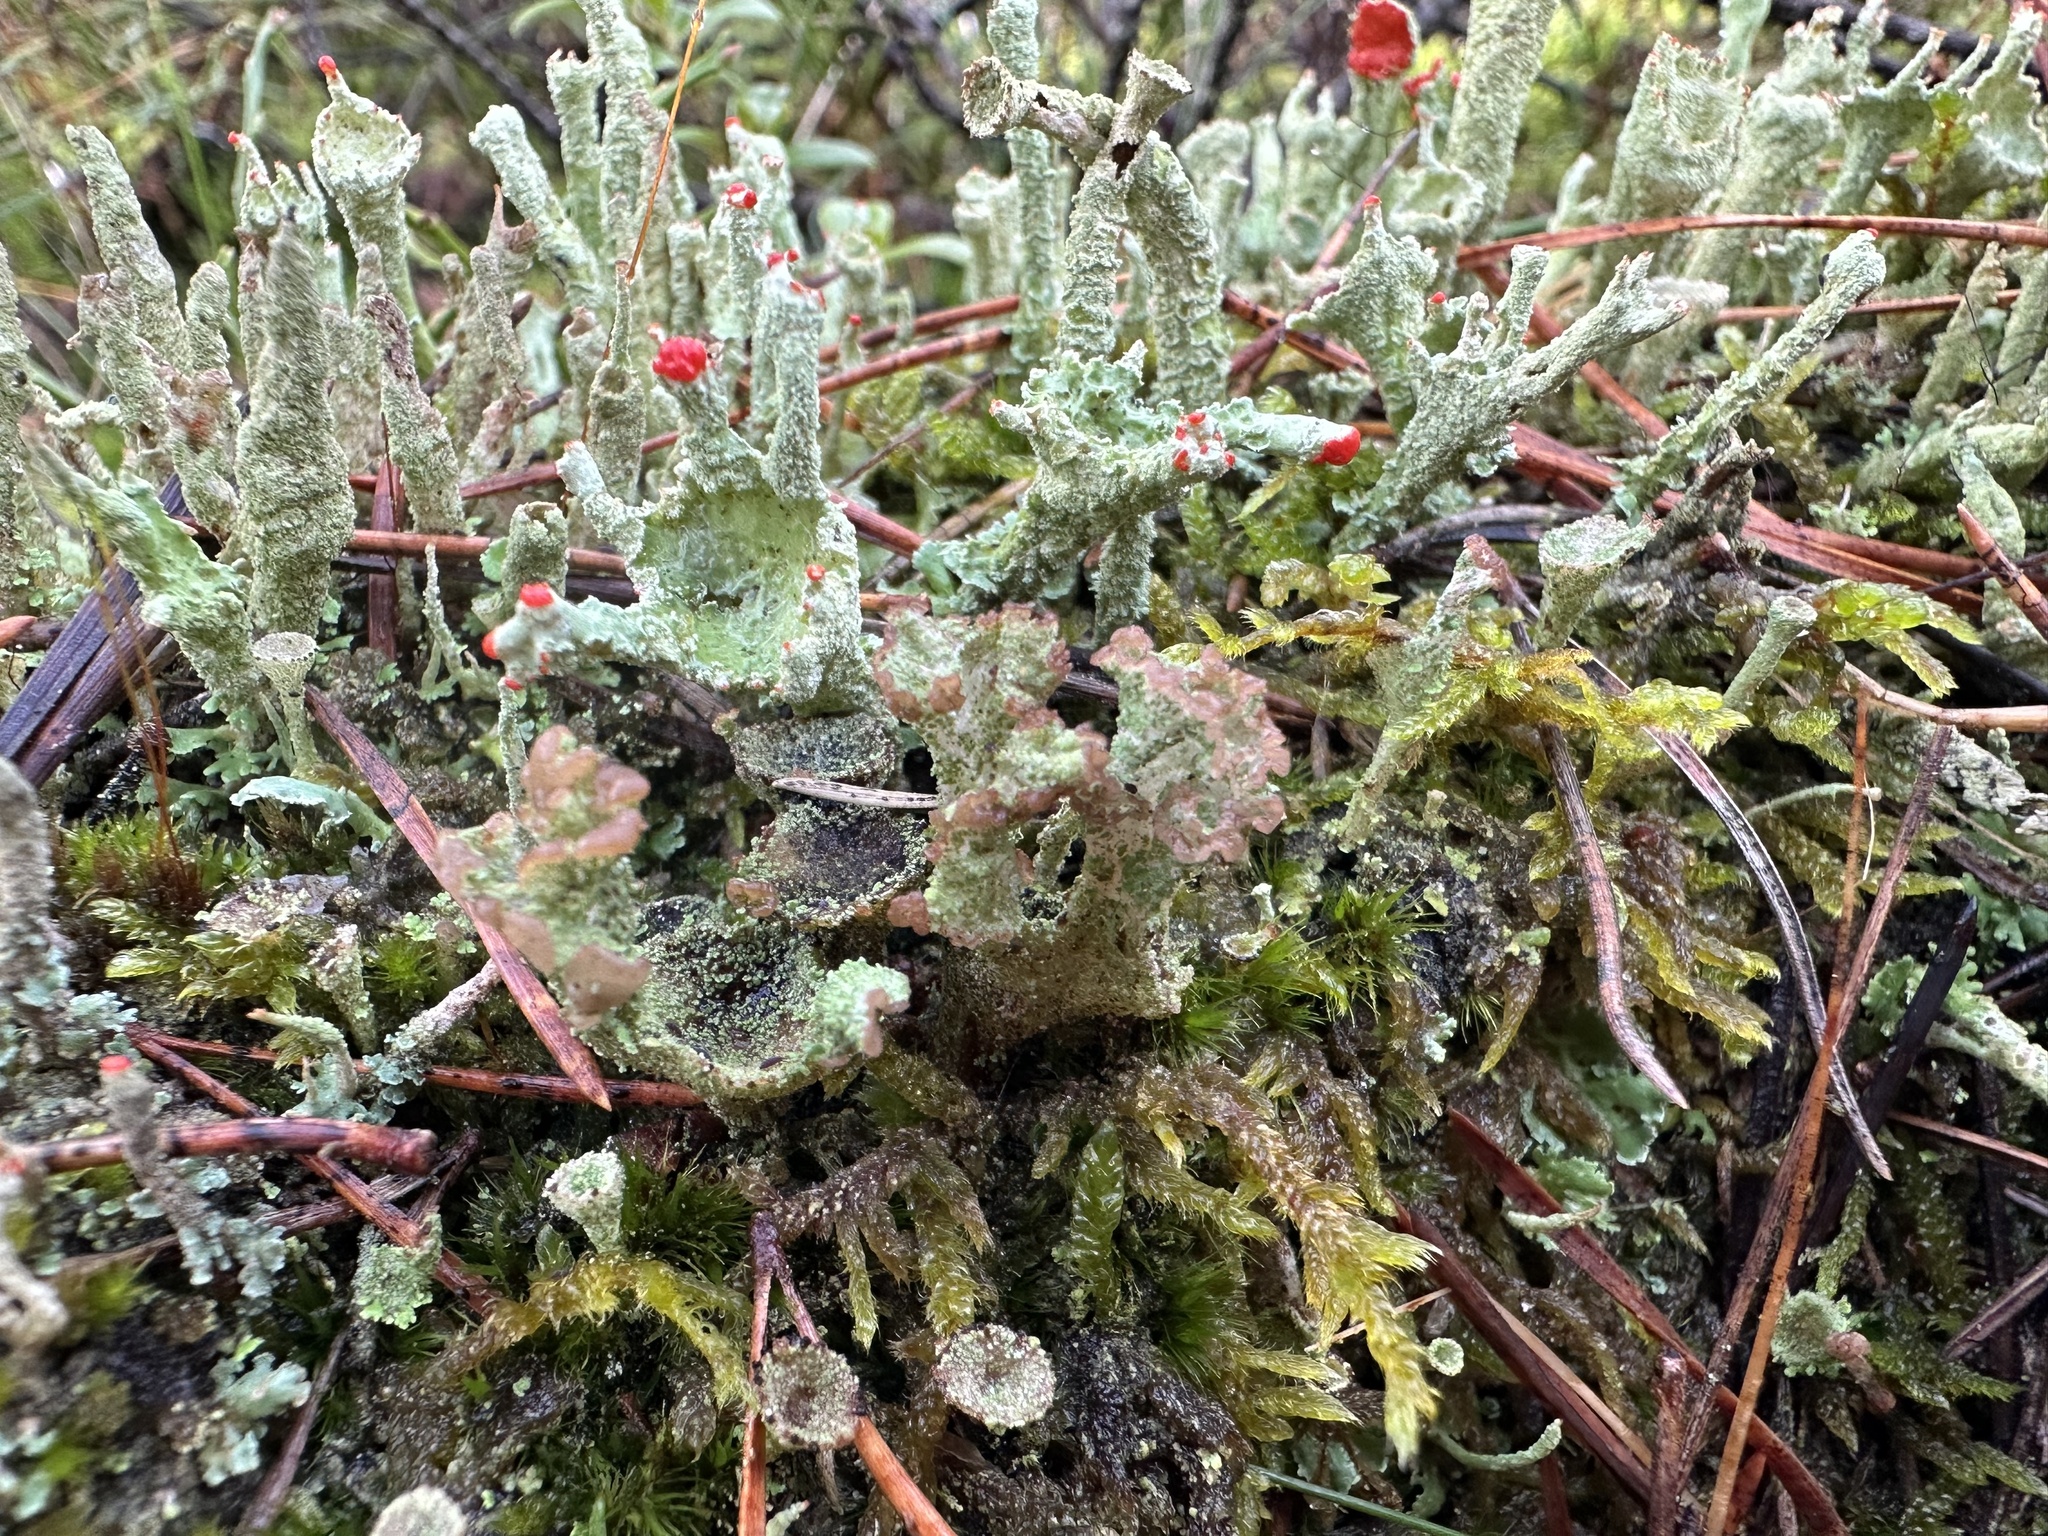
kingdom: Fungi
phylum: Ascomycota
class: Lecanoromycetes
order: Lecanorales
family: Cladoniaceae
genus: Cladonia
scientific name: Cladonia digitata
